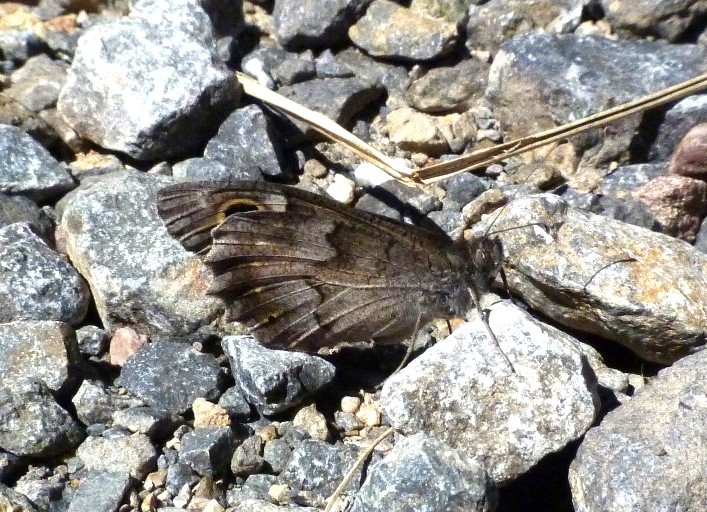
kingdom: Animalia
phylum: Arthropoda
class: Insecta
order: Lepidoptera
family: Nymphalidae
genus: Hipparchia
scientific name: Hipparchia statilinus
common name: Tree grayling
